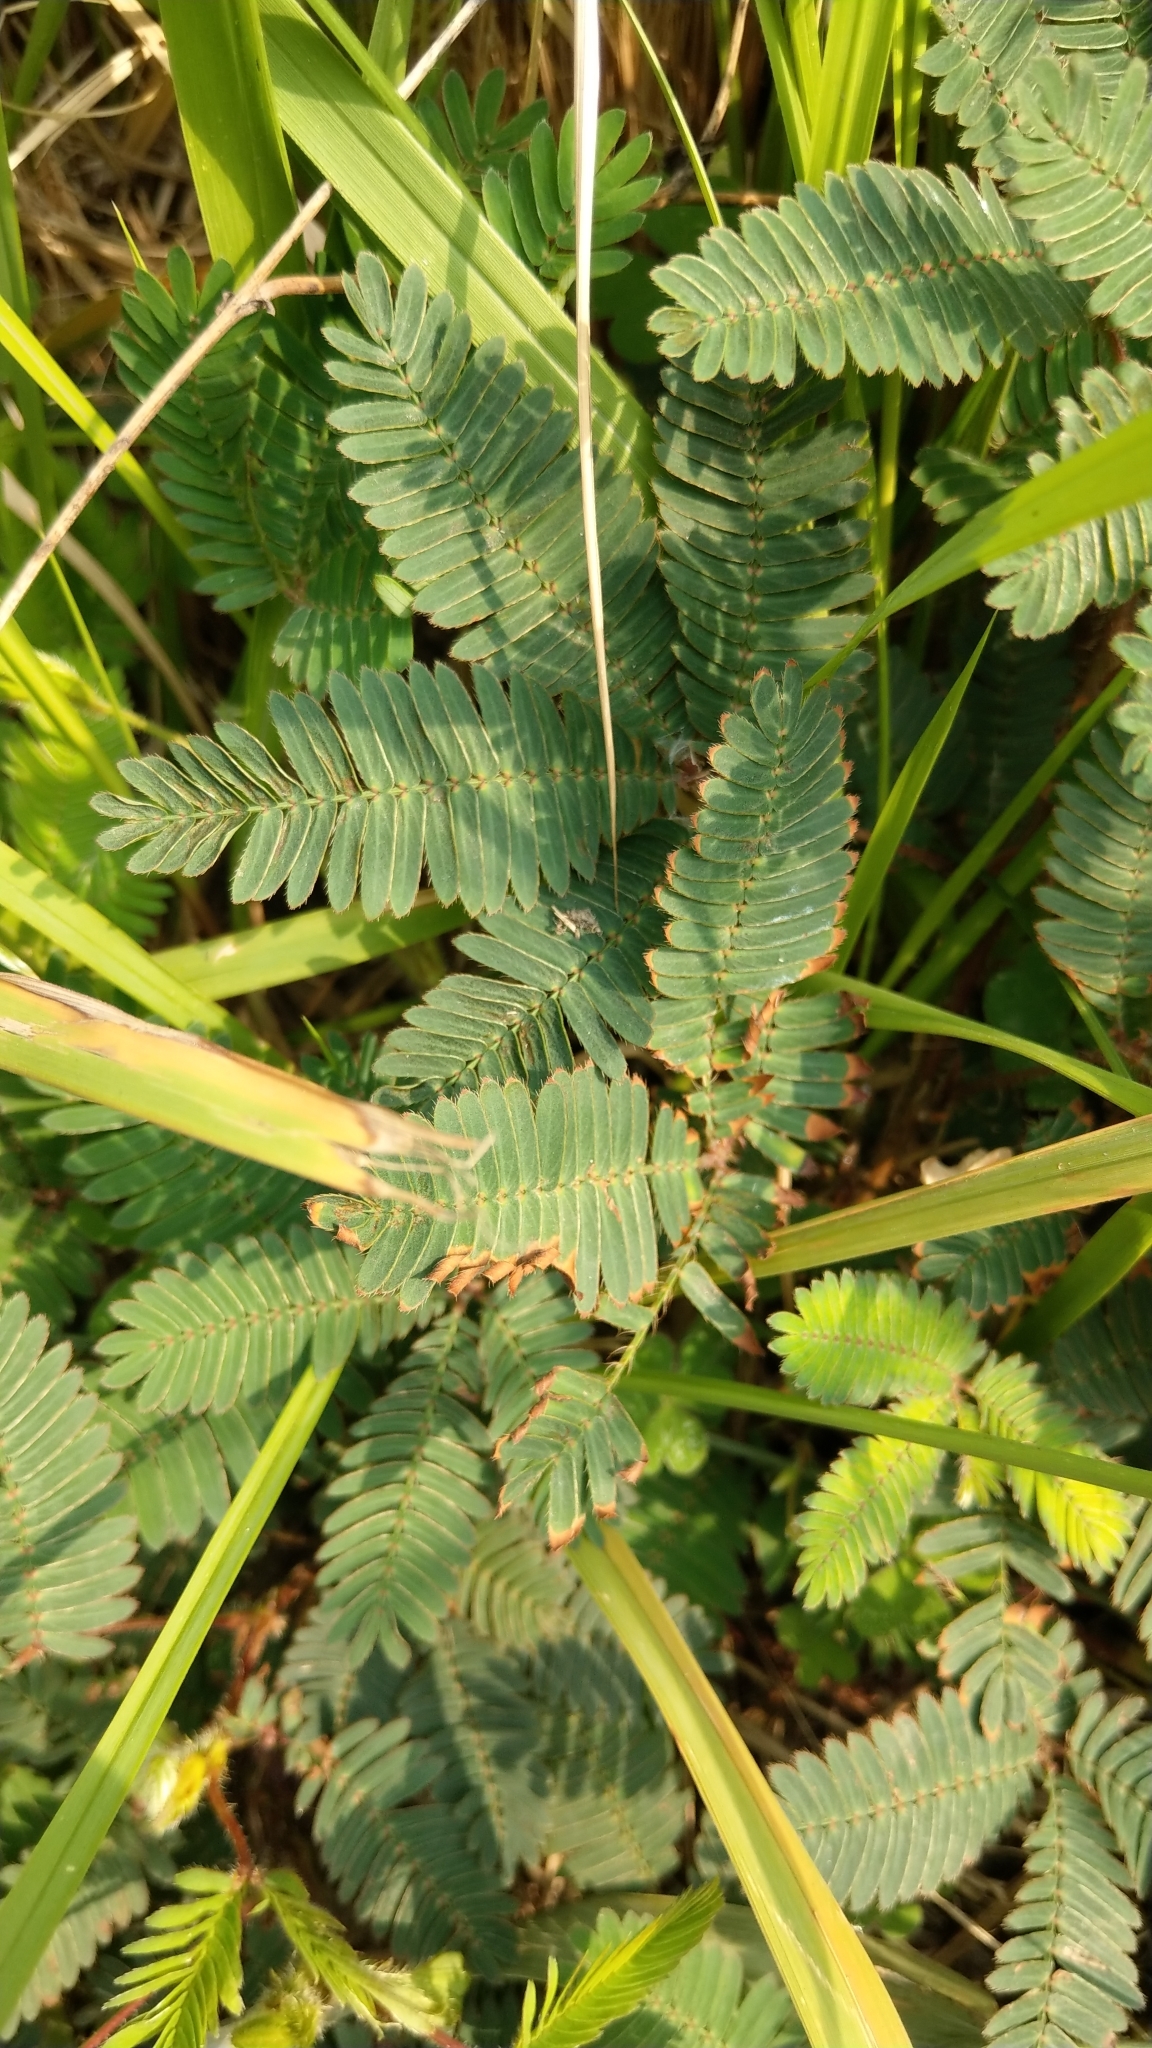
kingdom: Plantae
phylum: Tracheophyta
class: Magnoliopsida
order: Fabales
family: Fabaceae
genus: Mimosa
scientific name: Mimosa pudica
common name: Sensitive plant
